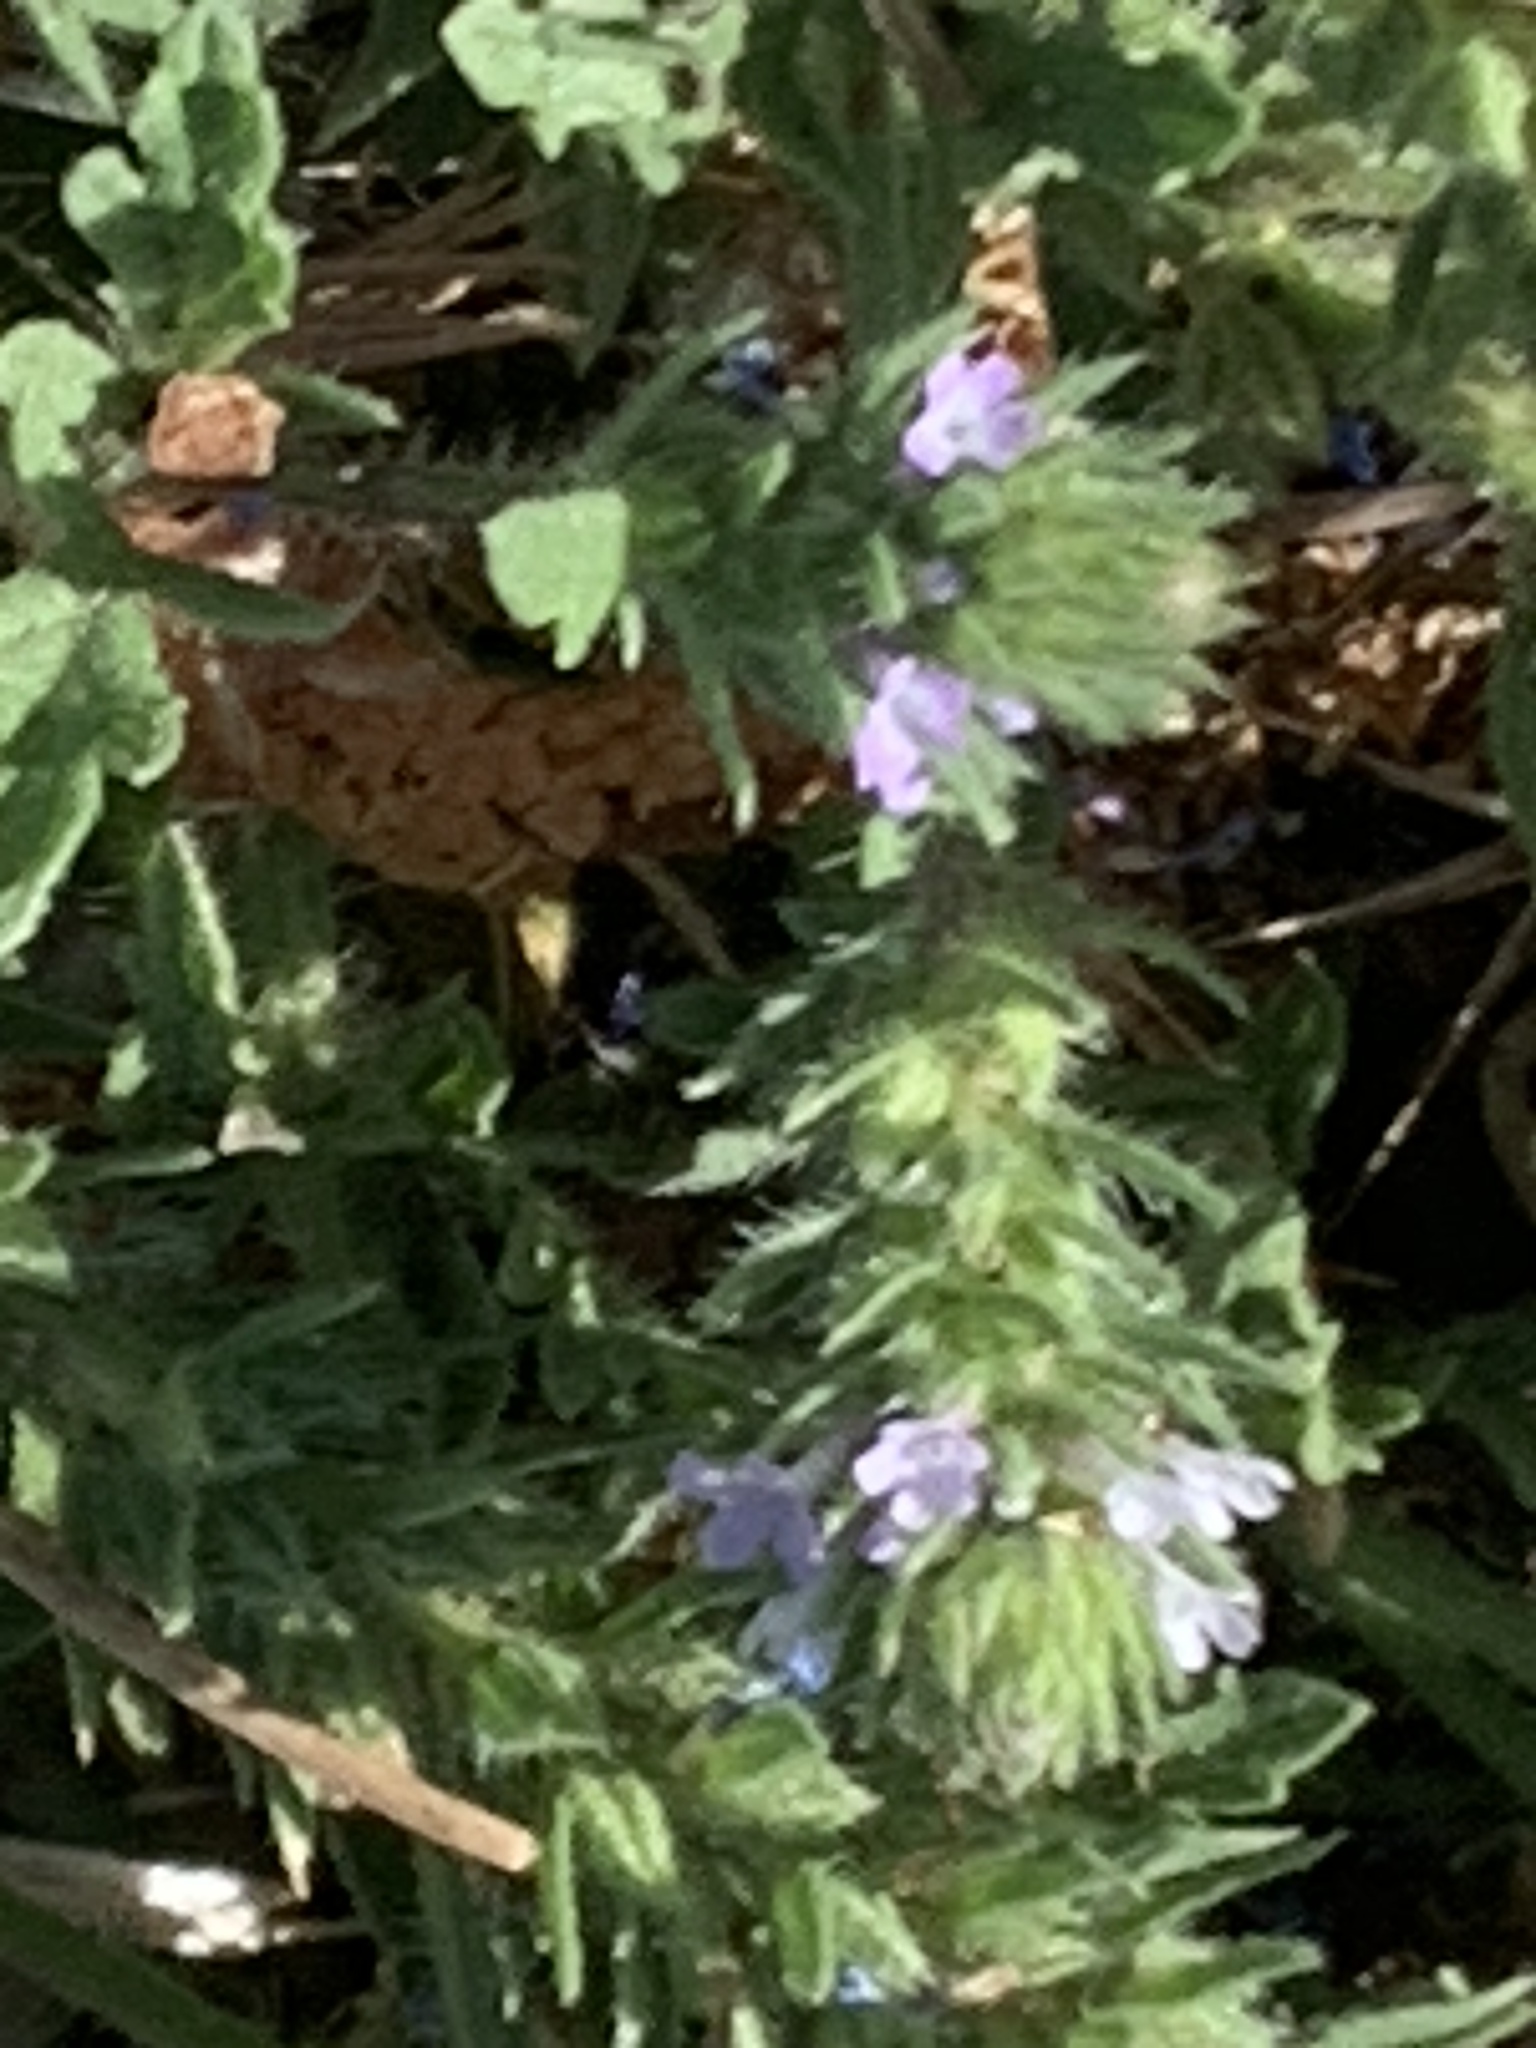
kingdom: Plantae
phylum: Tracheophyta
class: Magnoliopsida
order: Lamiales
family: Verbenaceae
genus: Verbena
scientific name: Verbena bracteata
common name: Bracted vervain
